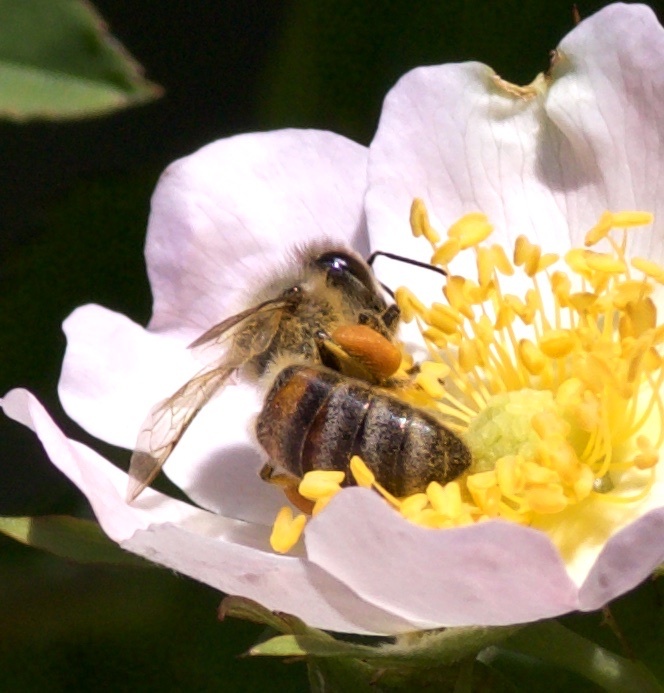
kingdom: Animalia
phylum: Arthropoda
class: Insecta
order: Hymenoptera
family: Apidae
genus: Apis
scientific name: Apis mellifera
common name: Honey bee
